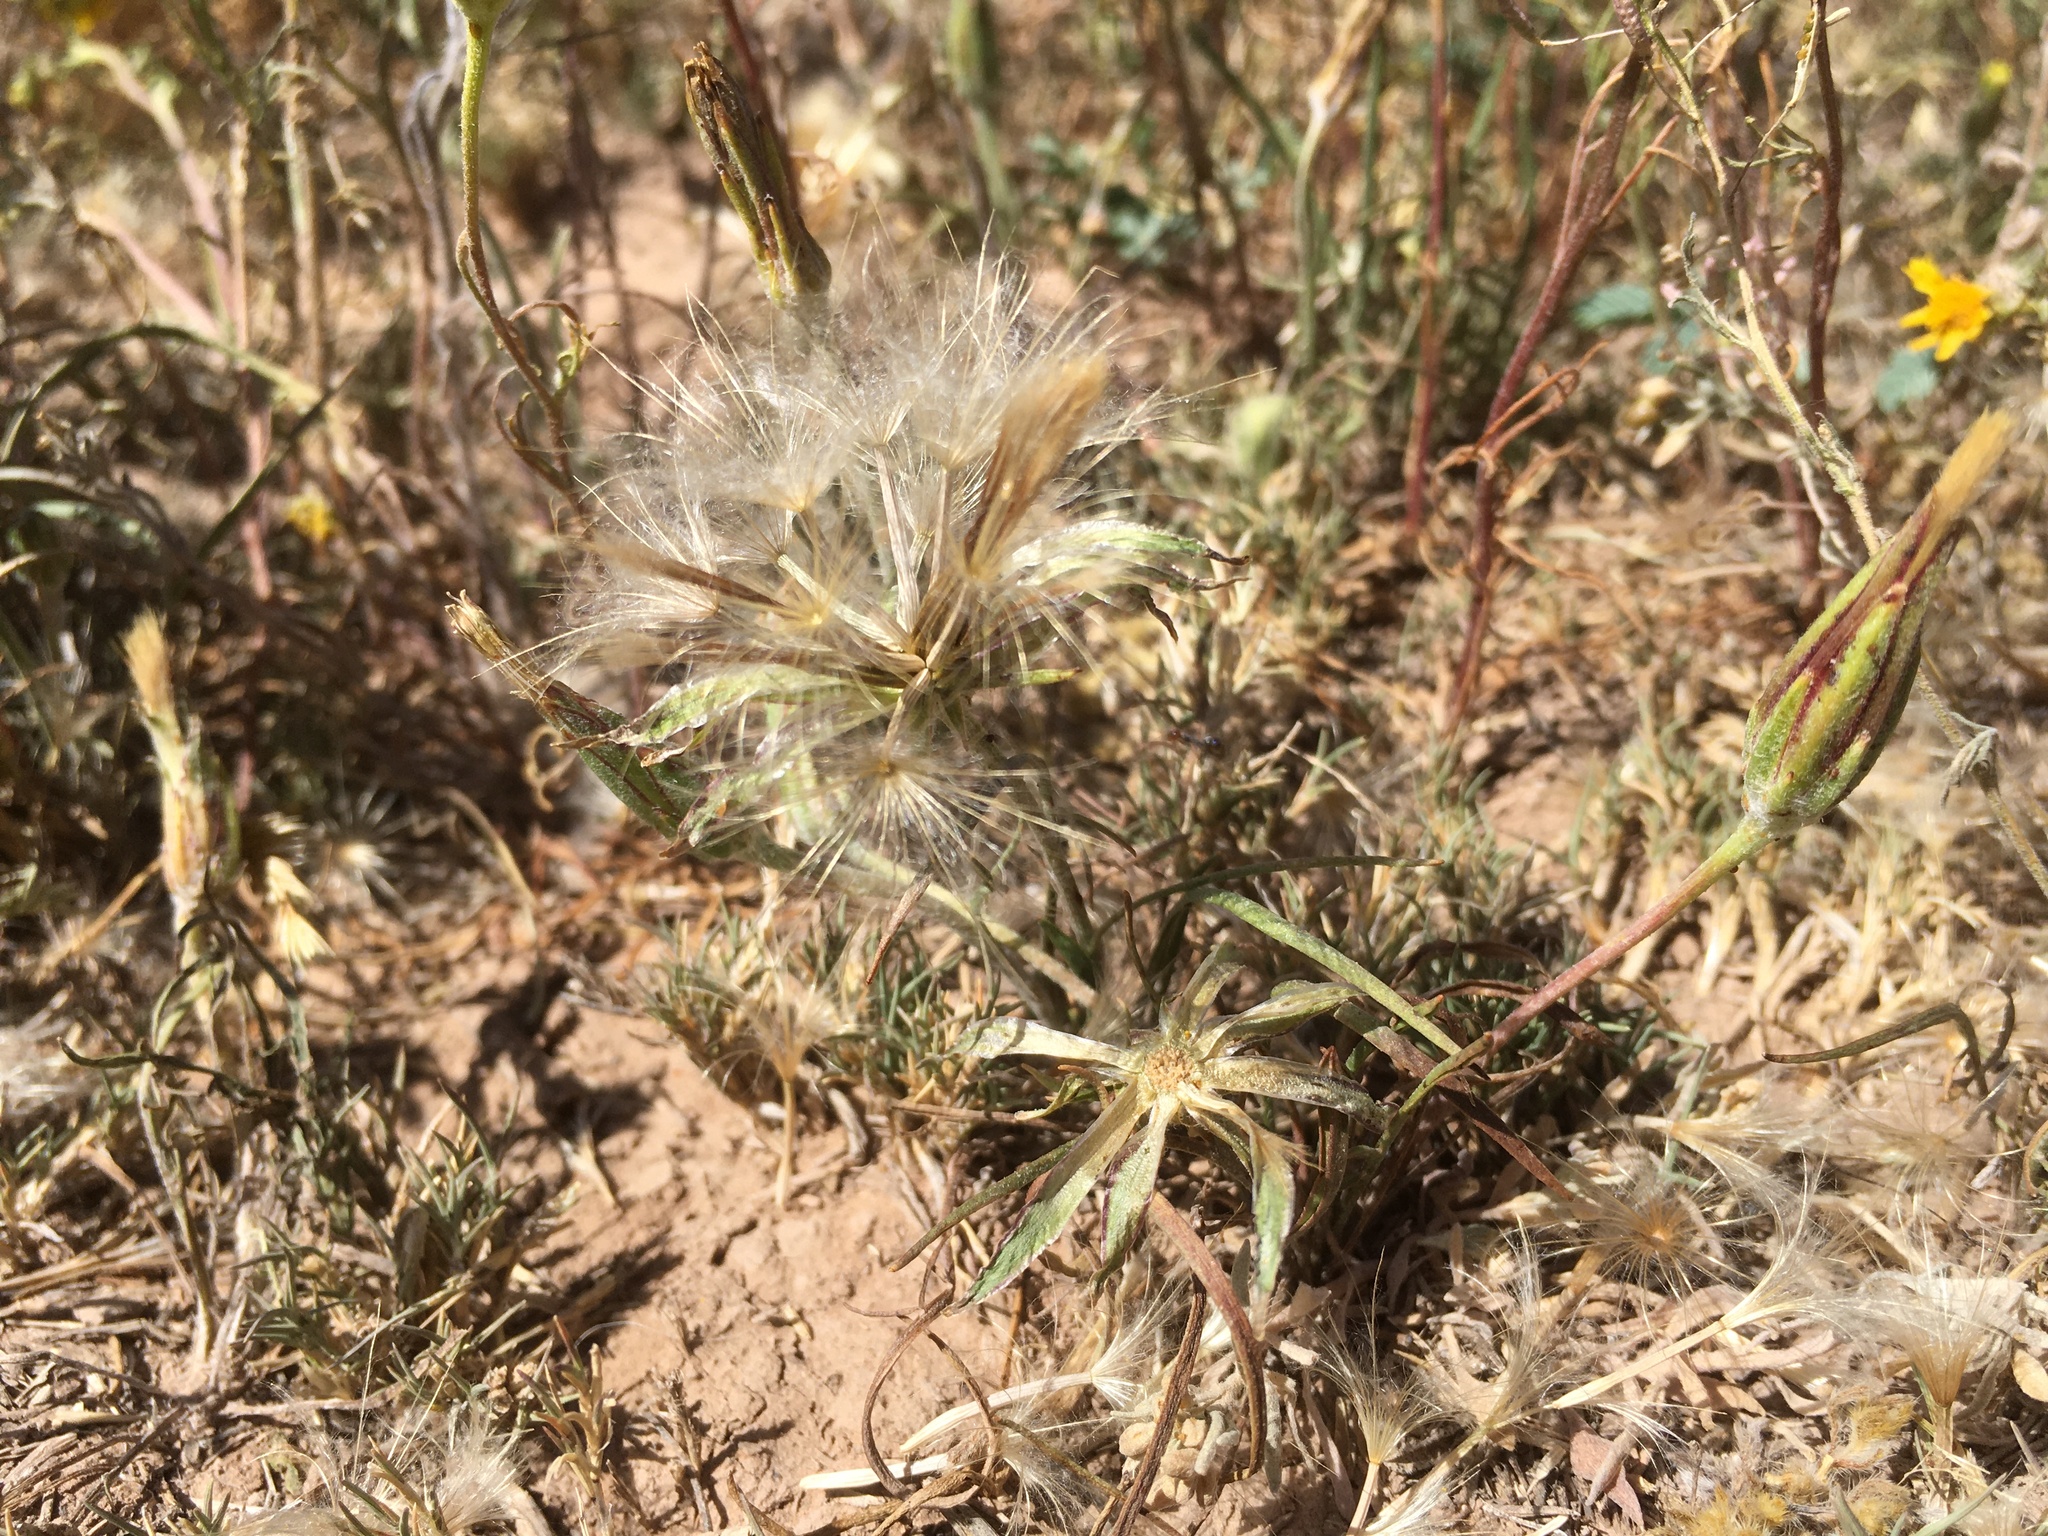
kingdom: Plantae
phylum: Tracheophyta
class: Magnoliopsida
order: Asterales
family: Asteraceae
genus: Scorzonera
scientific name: Scorzonera laciniata
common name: Cutleaf vipergrass
